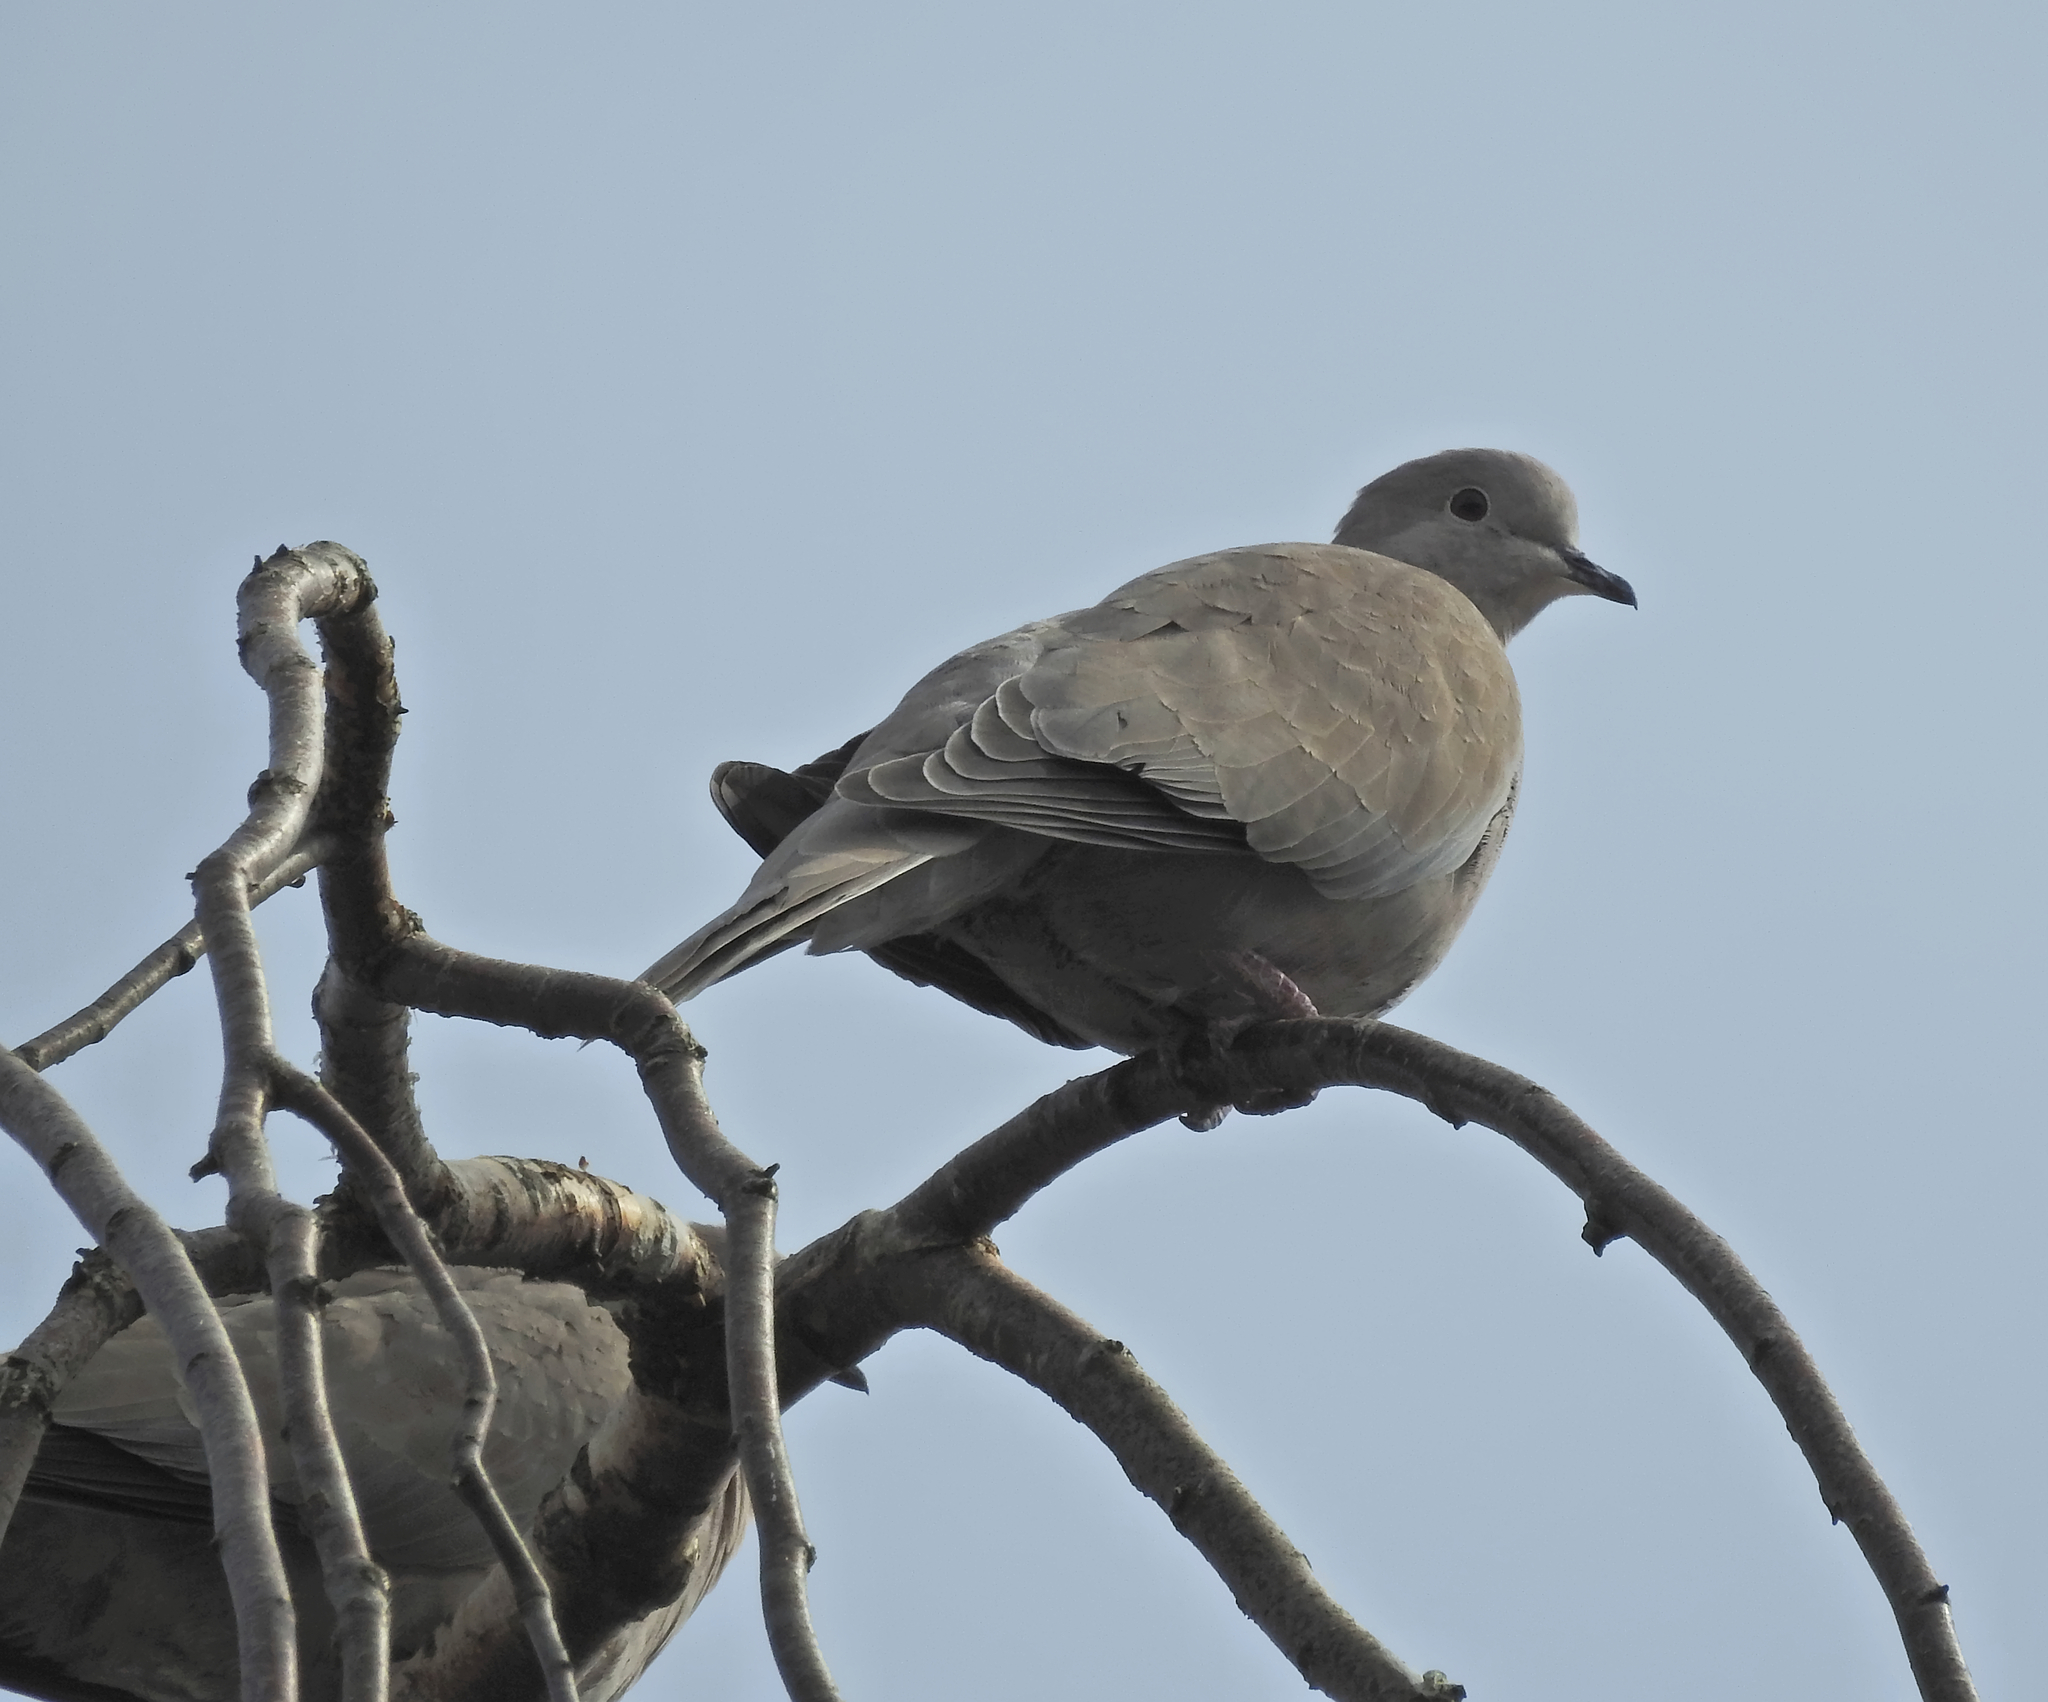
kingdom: Animalia
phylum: Chordata
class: Aves
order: Columbiformes
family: Columbidae
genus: Streptopelia
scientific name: Streptopelia decaocto
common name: Eurasian collared dove
